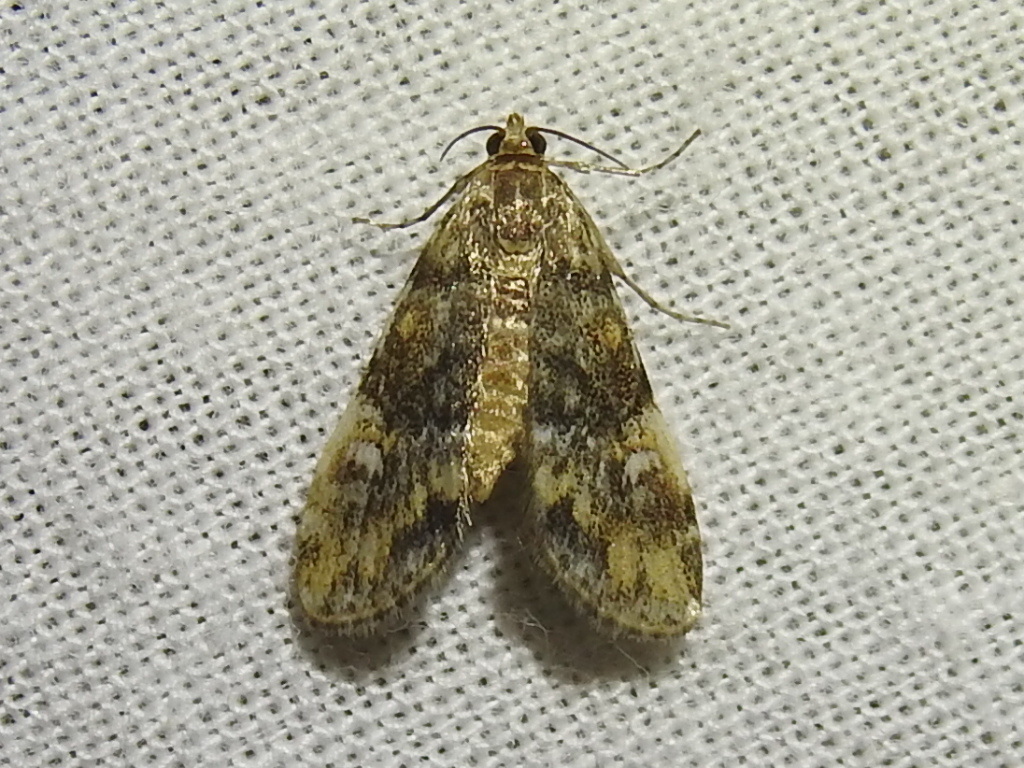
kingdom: Animalia
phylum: Arthropoda
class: Insecta
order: Lepidoptera
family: Crambidae
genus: Elophila
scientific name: Elophila obliteralis
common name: Waterlily leafcutter moth
